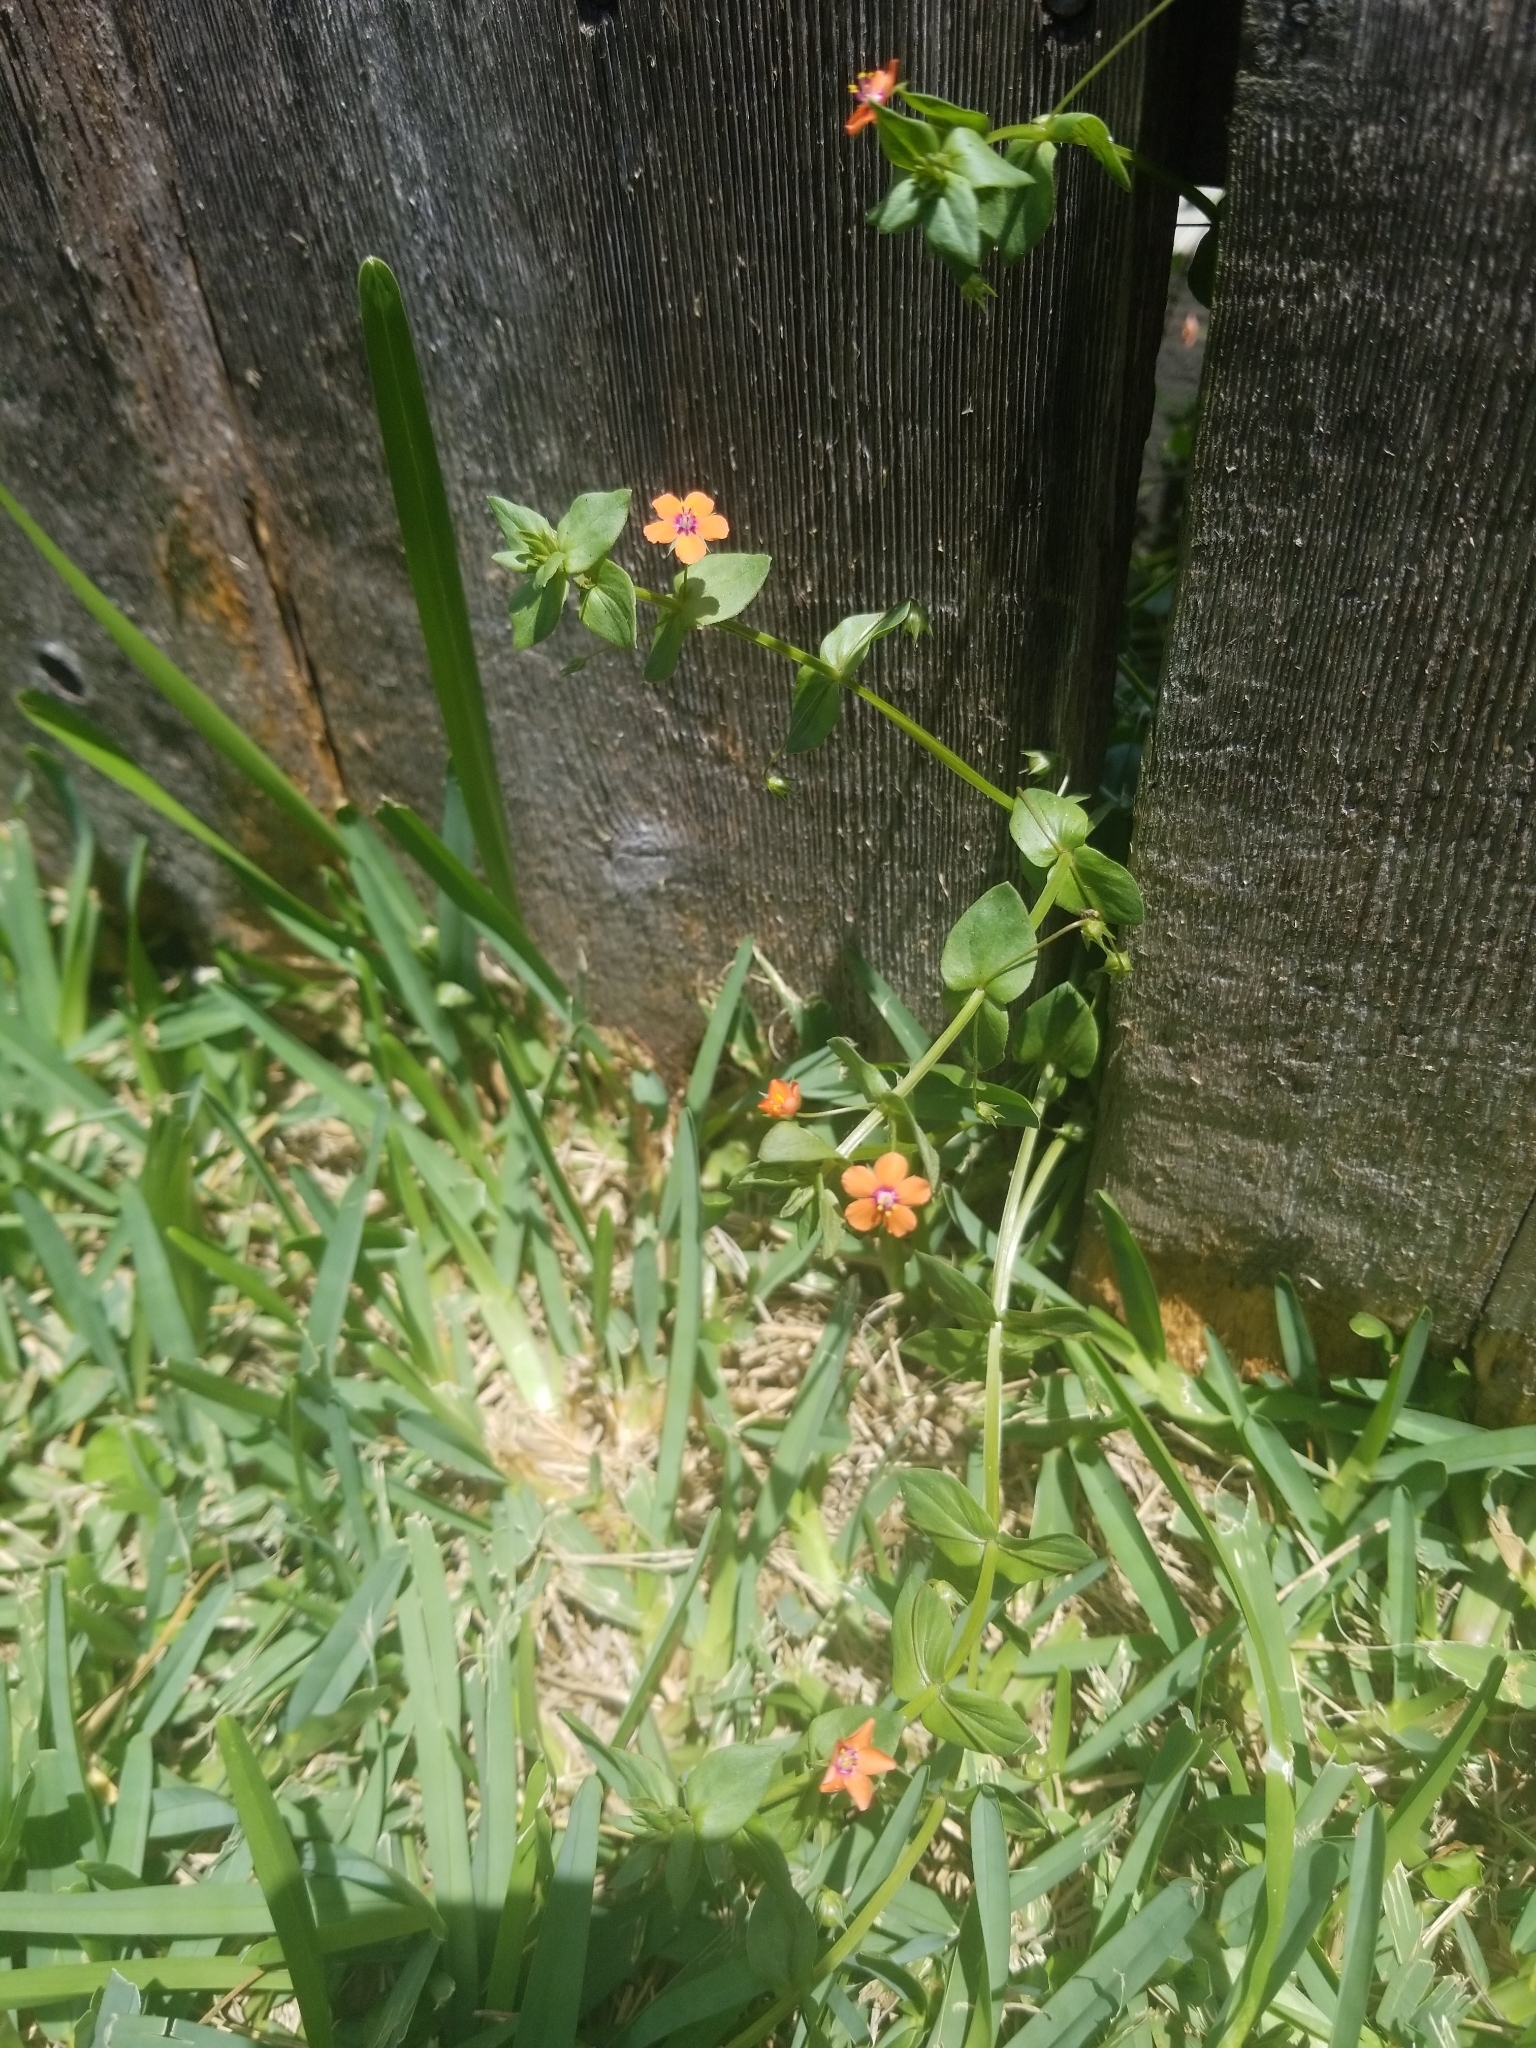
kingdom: Plantae
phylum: Tracheophyta
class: Magnoliopsida
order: Ericales
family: Primulaceae
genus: Lysimachia
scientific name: Lysimachia arvensis
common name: Scarlet pimpernel
